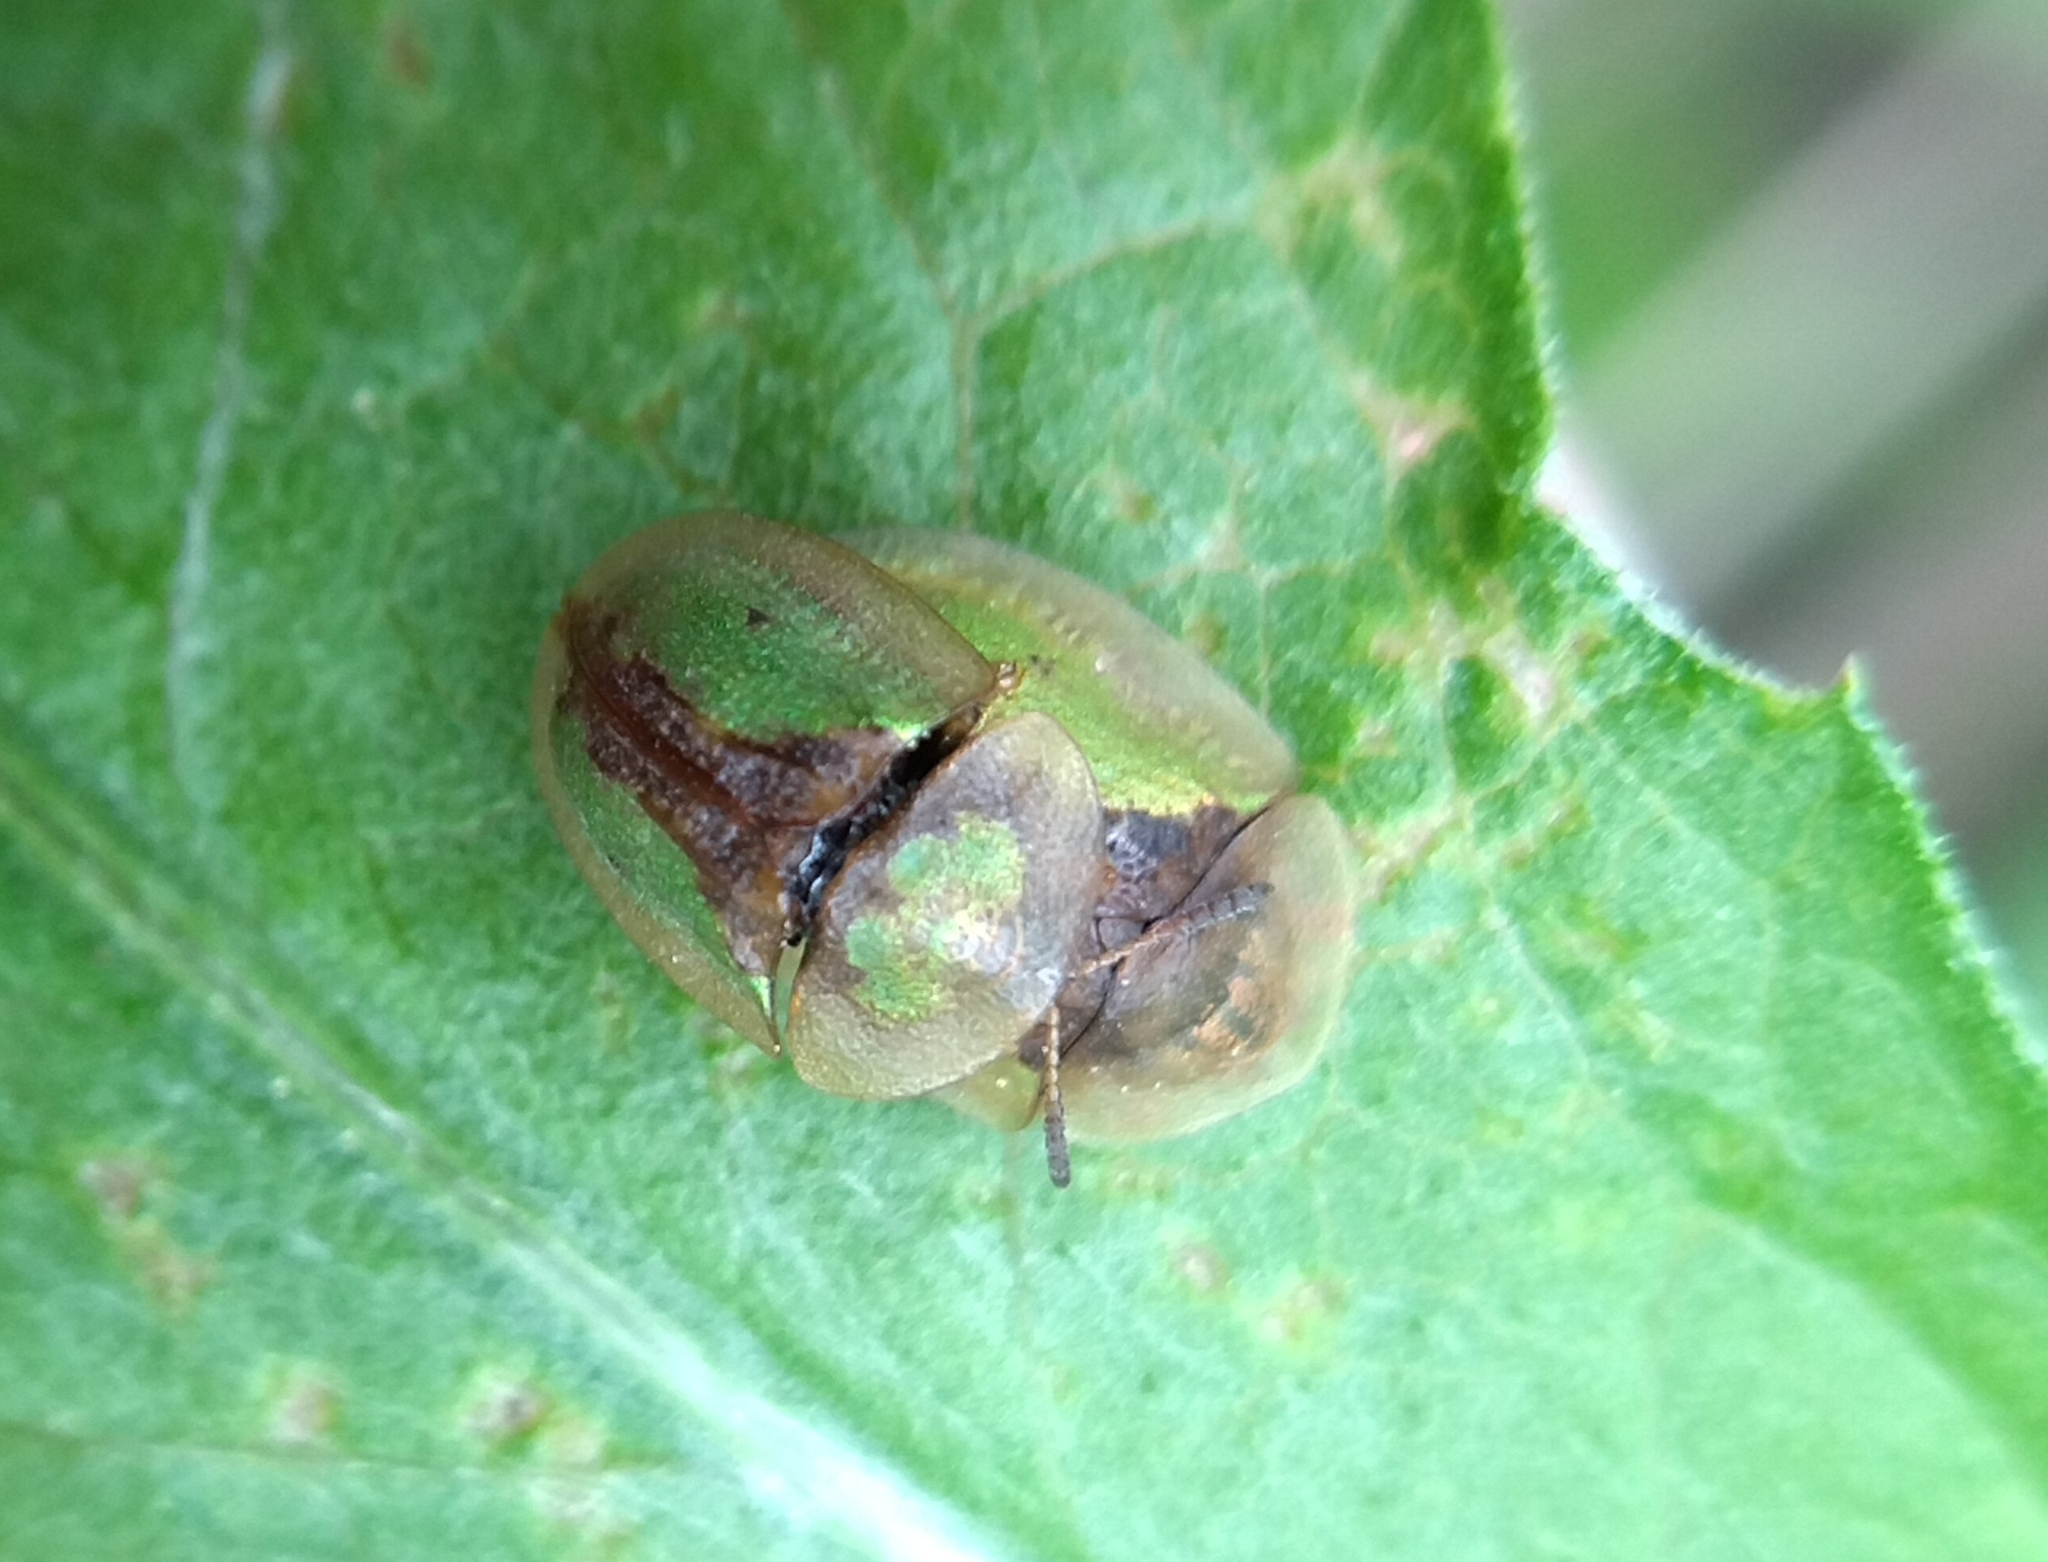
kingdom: Animalia
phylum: Arthropoda
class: Insecta
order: Coleoptera
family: Chrysomelidae
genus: Cassida
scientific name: Cassida vibex
